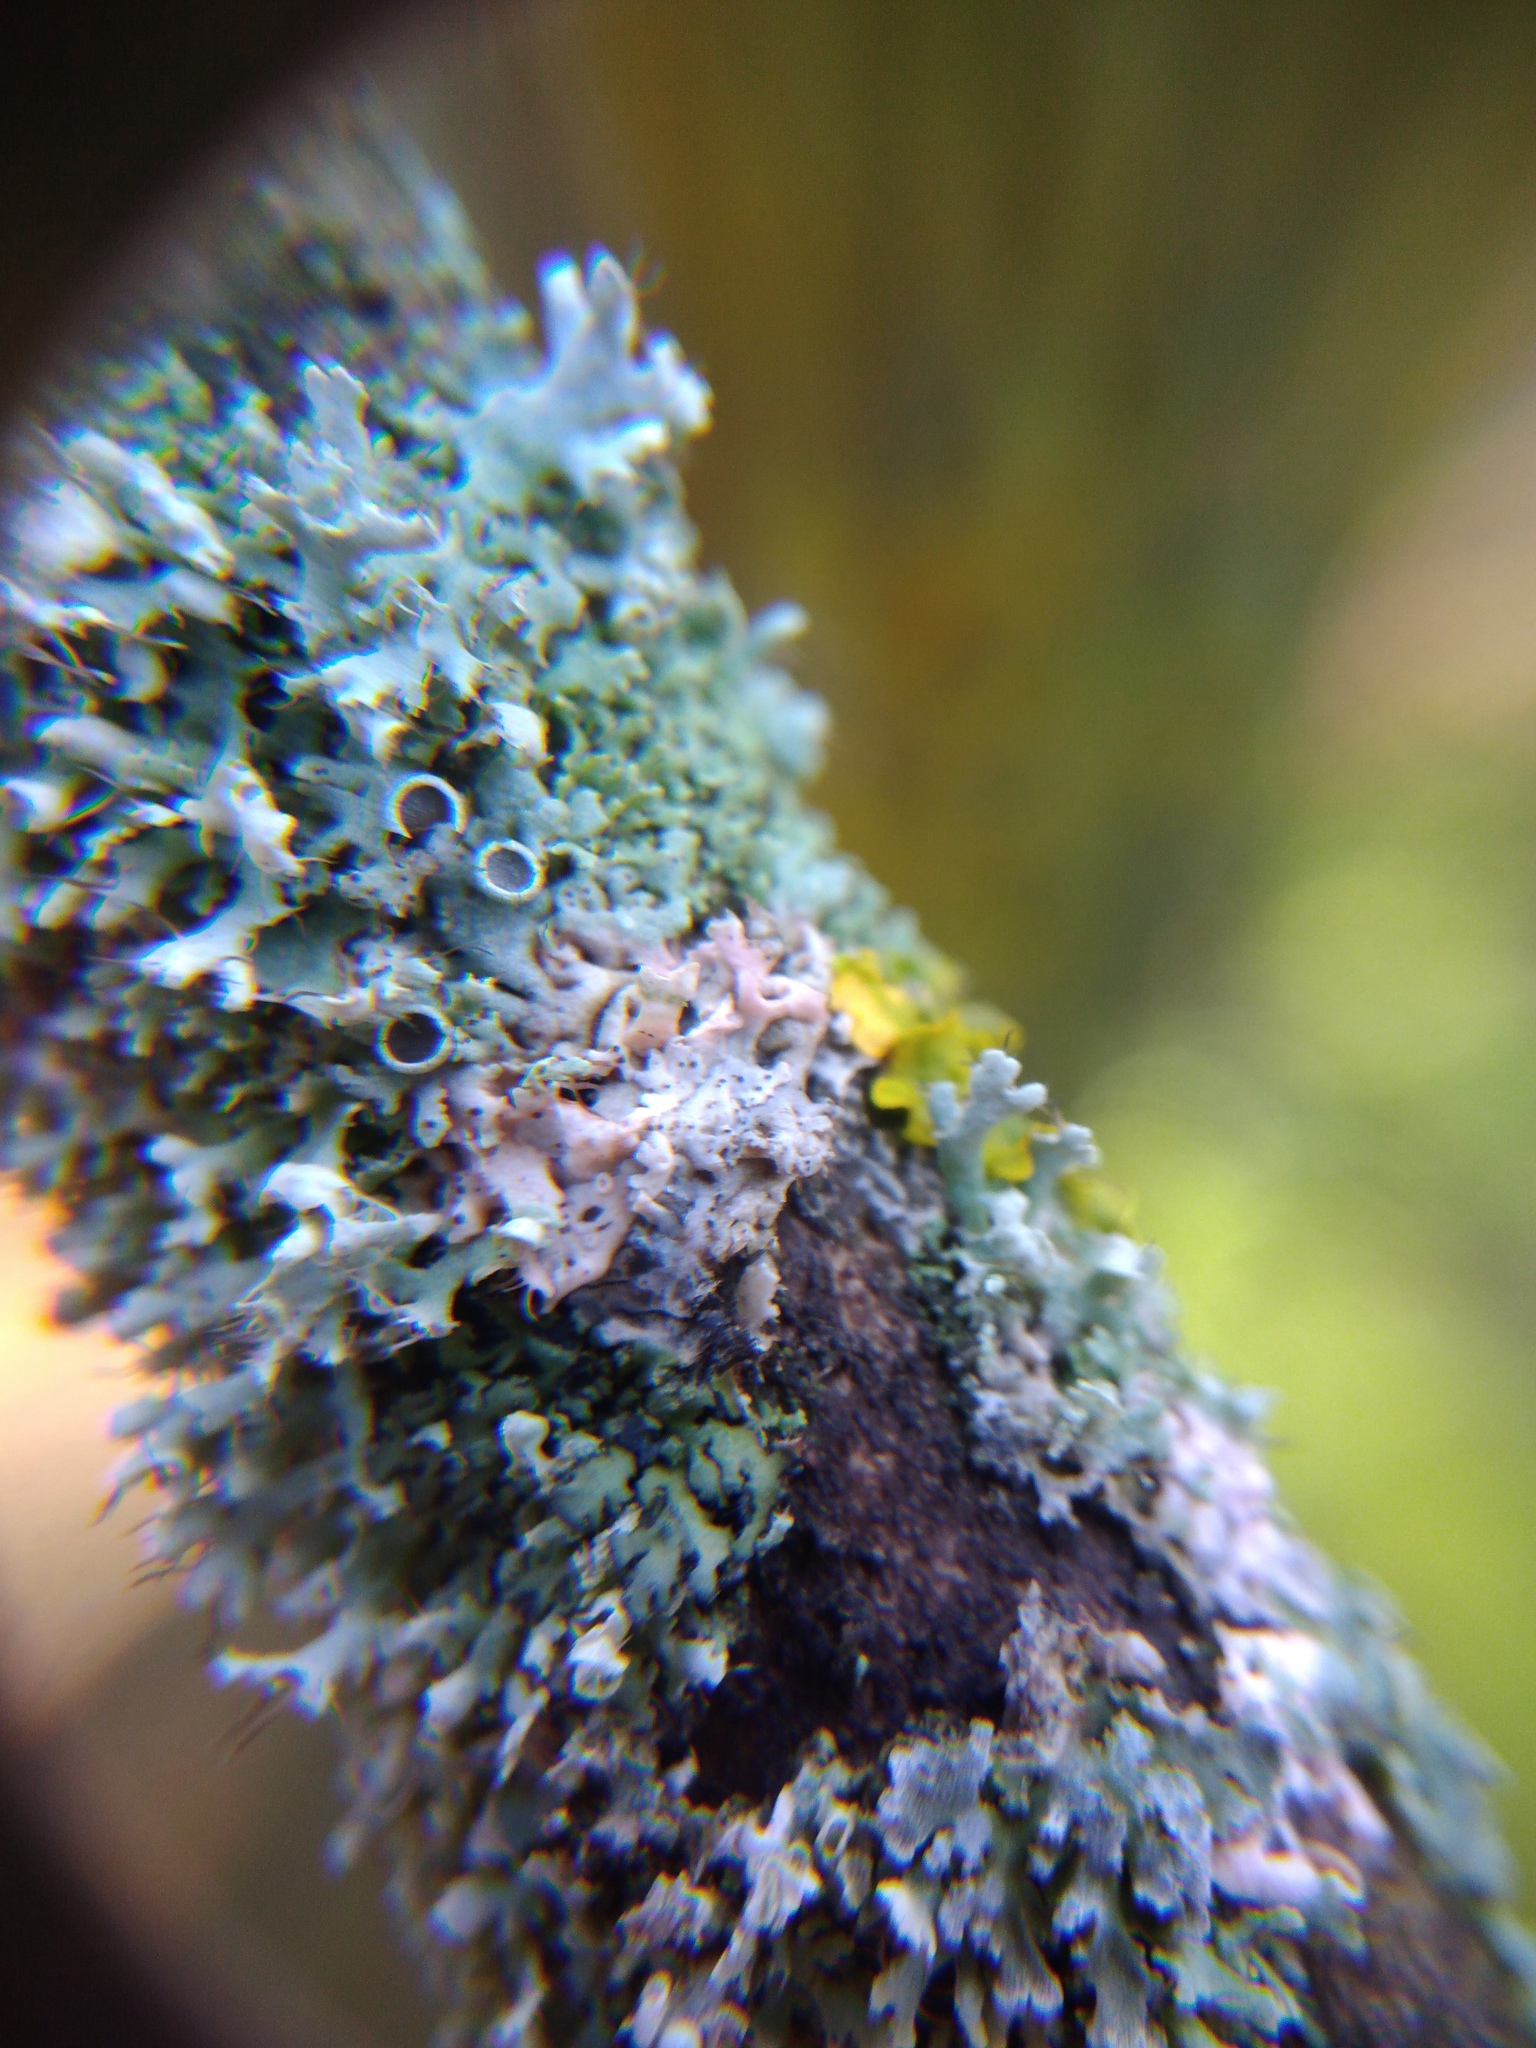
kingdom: Fungi
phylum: Basidiomycota
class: Agaricomycetes
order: Corticiales
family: Corticiaceae
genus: Laetisaria
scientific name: Laetisaria lichenicola
